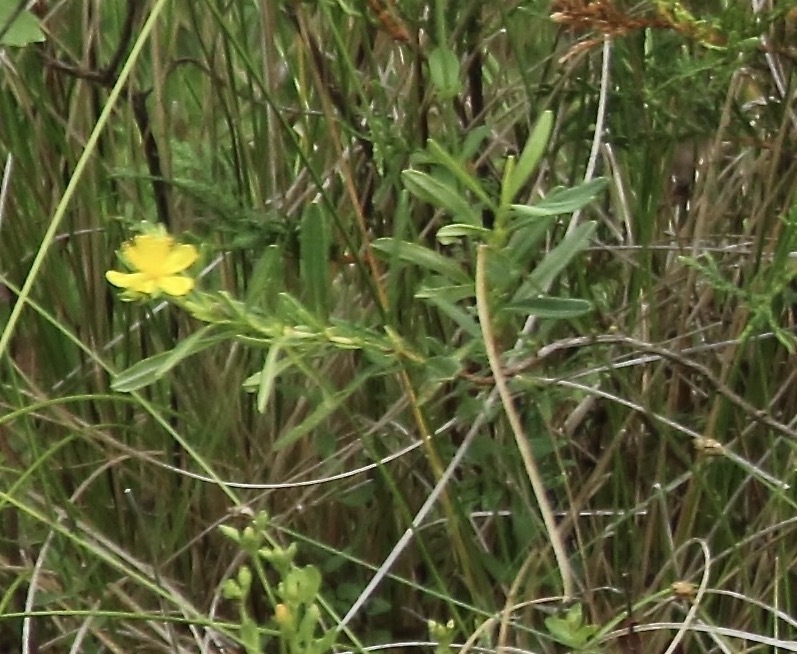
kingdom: Plantae
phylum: Tracheophyta
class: Magnoliopsida
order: Malpighiales
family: Hypericaceae
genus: Hypericum
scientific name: Hypericum densiflorum
